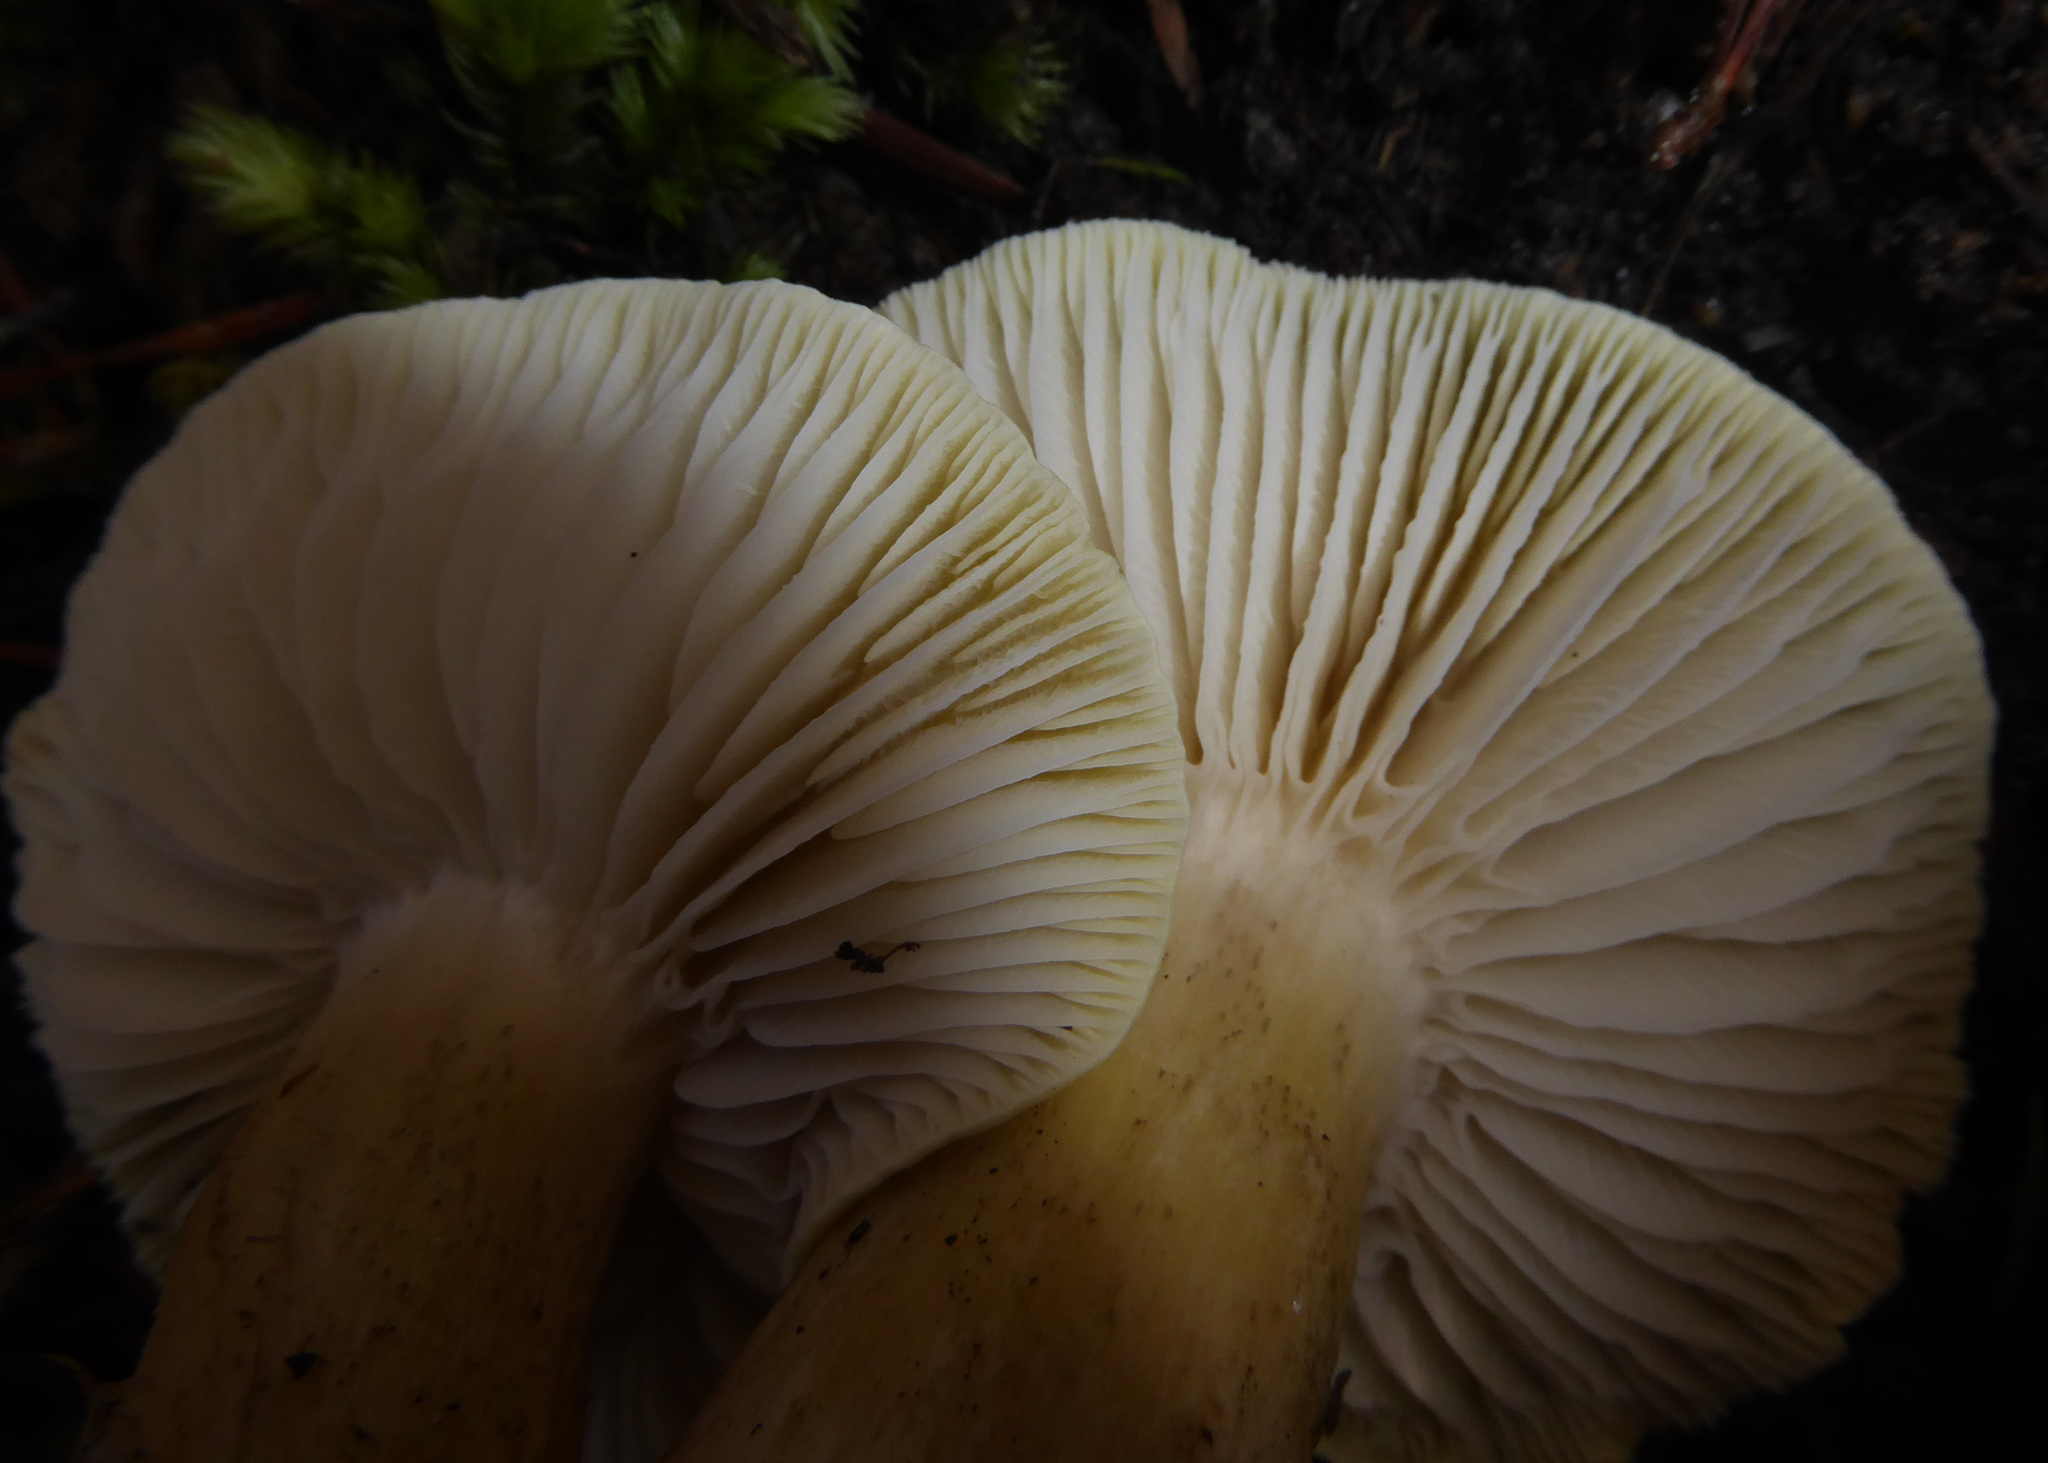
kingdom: Fungi
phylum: Basidiomycota
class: Agaricomycetes
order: Agaricales
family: Tricholomataceae
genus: Tricholoma
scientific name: Tricholoma viridiolivaceum
